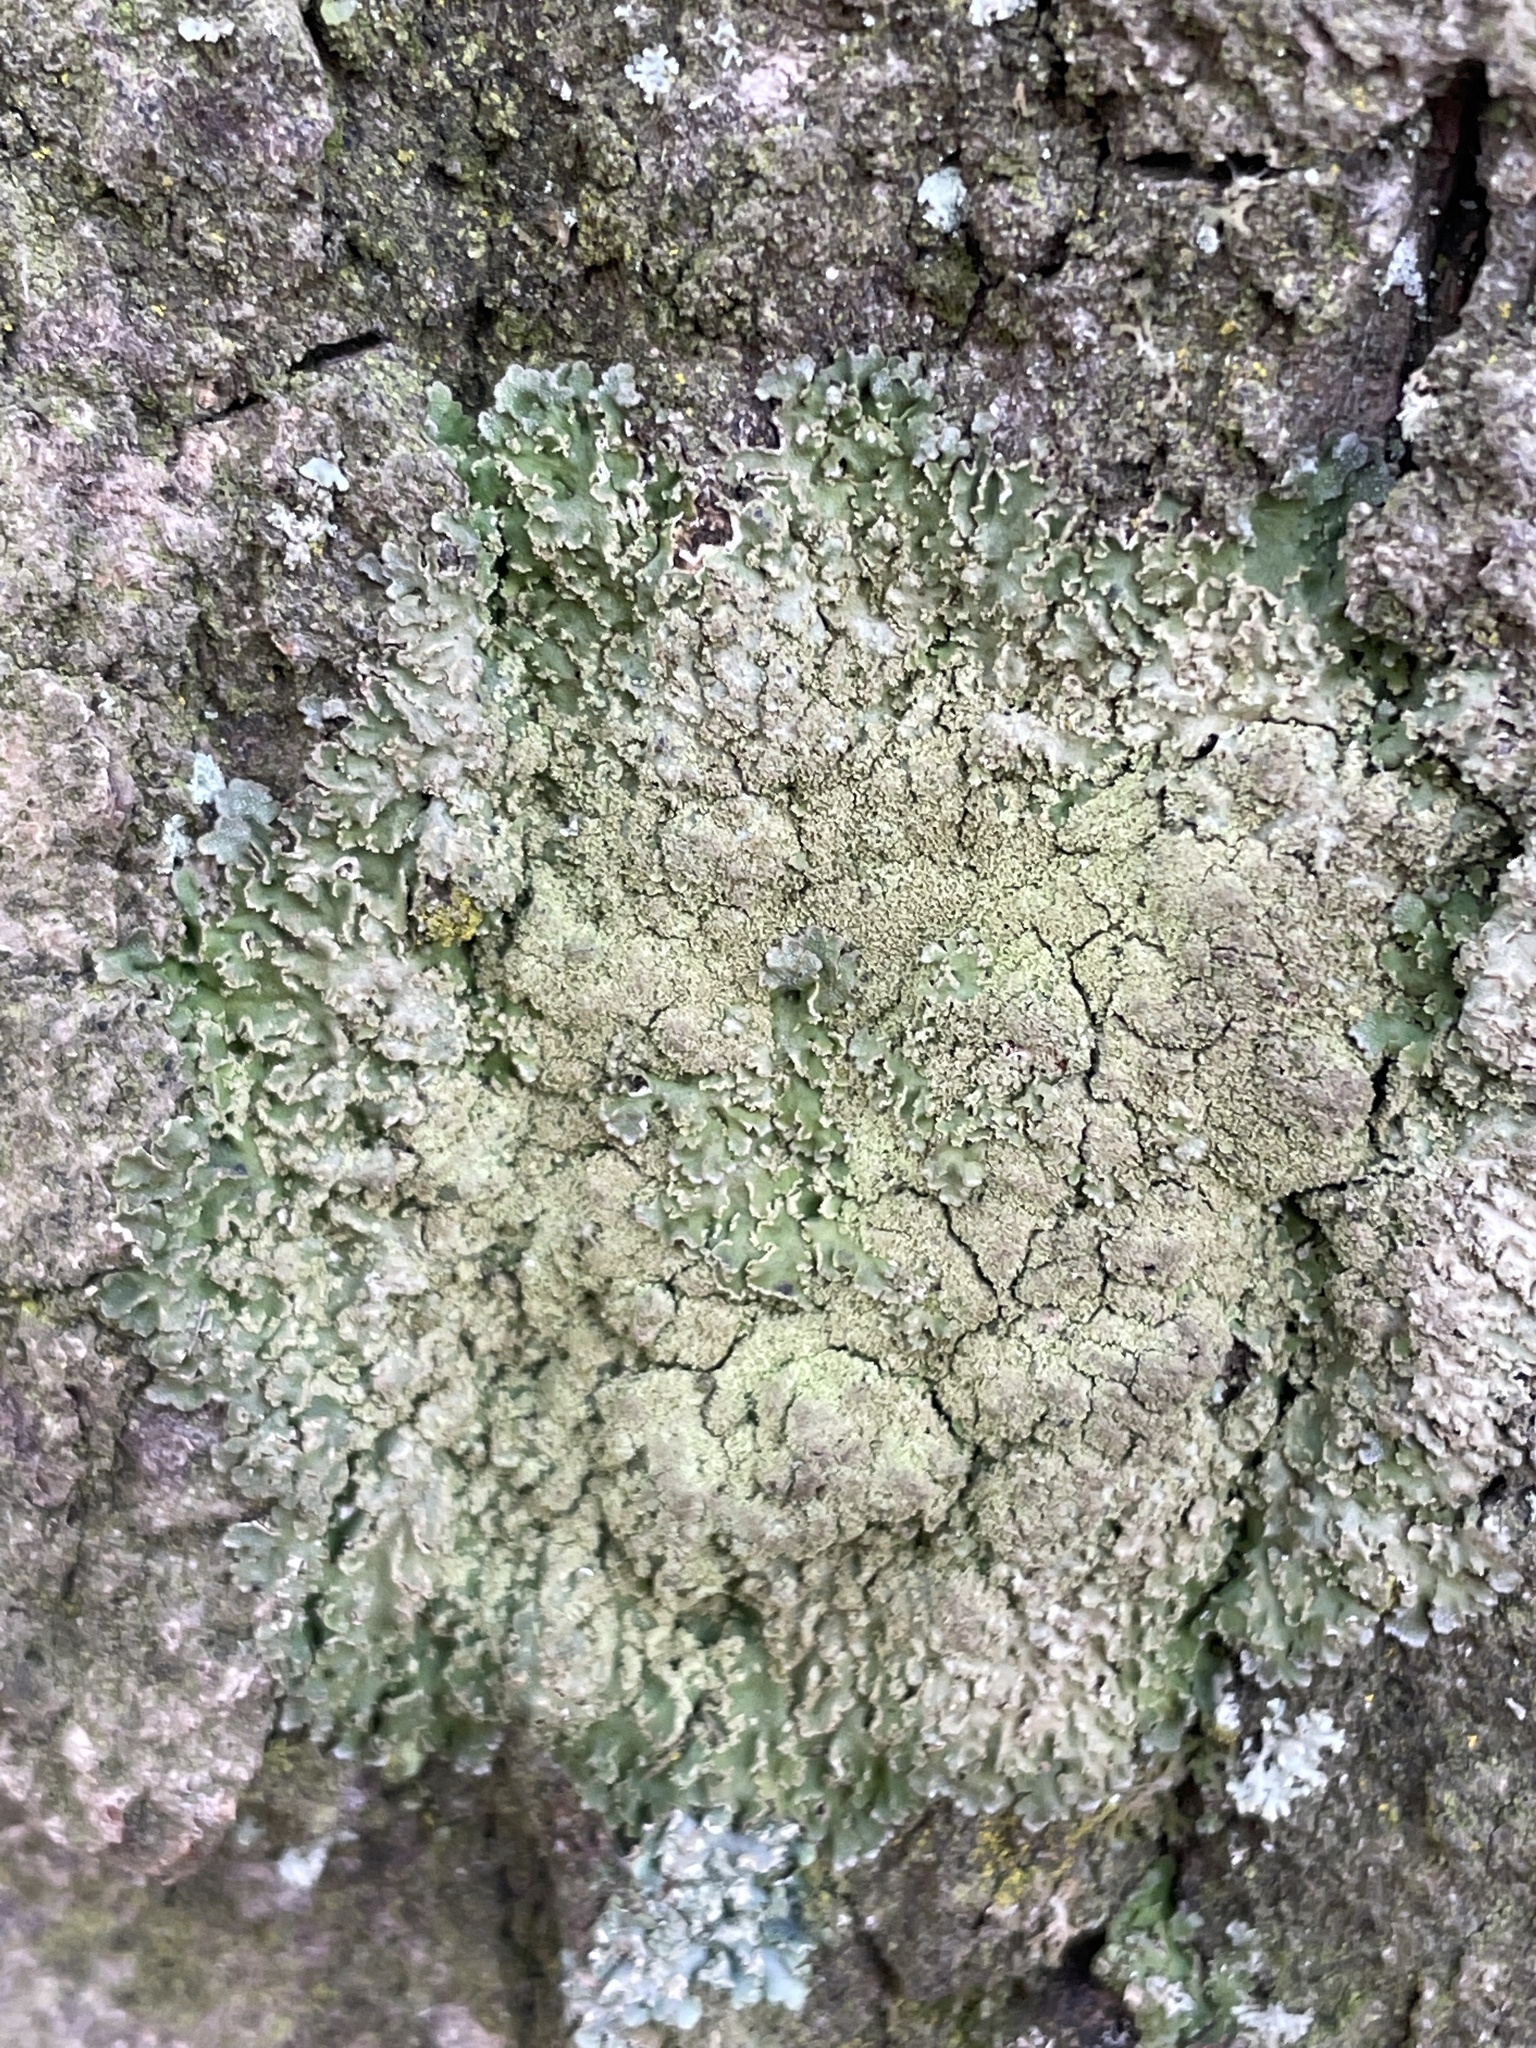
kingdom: Fungi
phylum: Ascomycota
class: Lecanoromycetes
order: Caliciales
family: Physciaceae
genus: Poeltonia
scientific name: Poeltonia grisea
